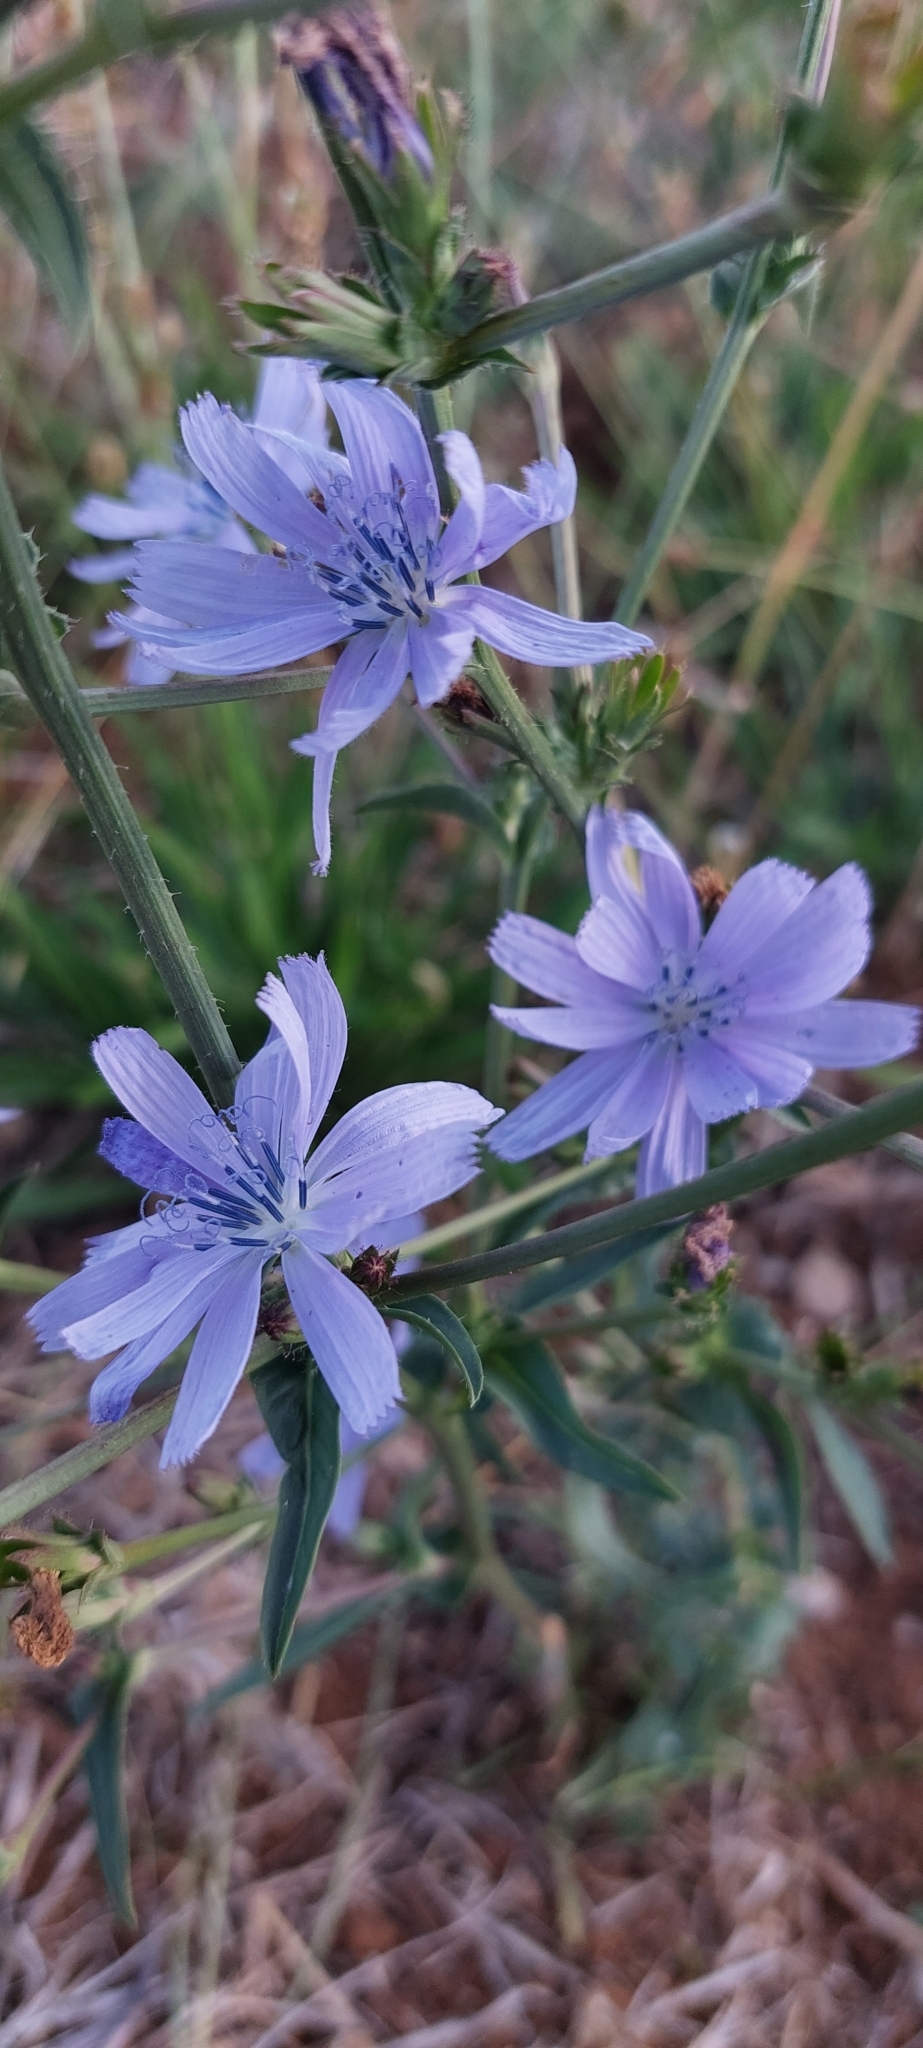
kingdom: Plantae
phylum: Tracheophyta
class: Magnoliopsida
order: Asterales
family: Asteraceae
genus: Cichorium
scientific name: Cichorium intybus
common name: Chicory
